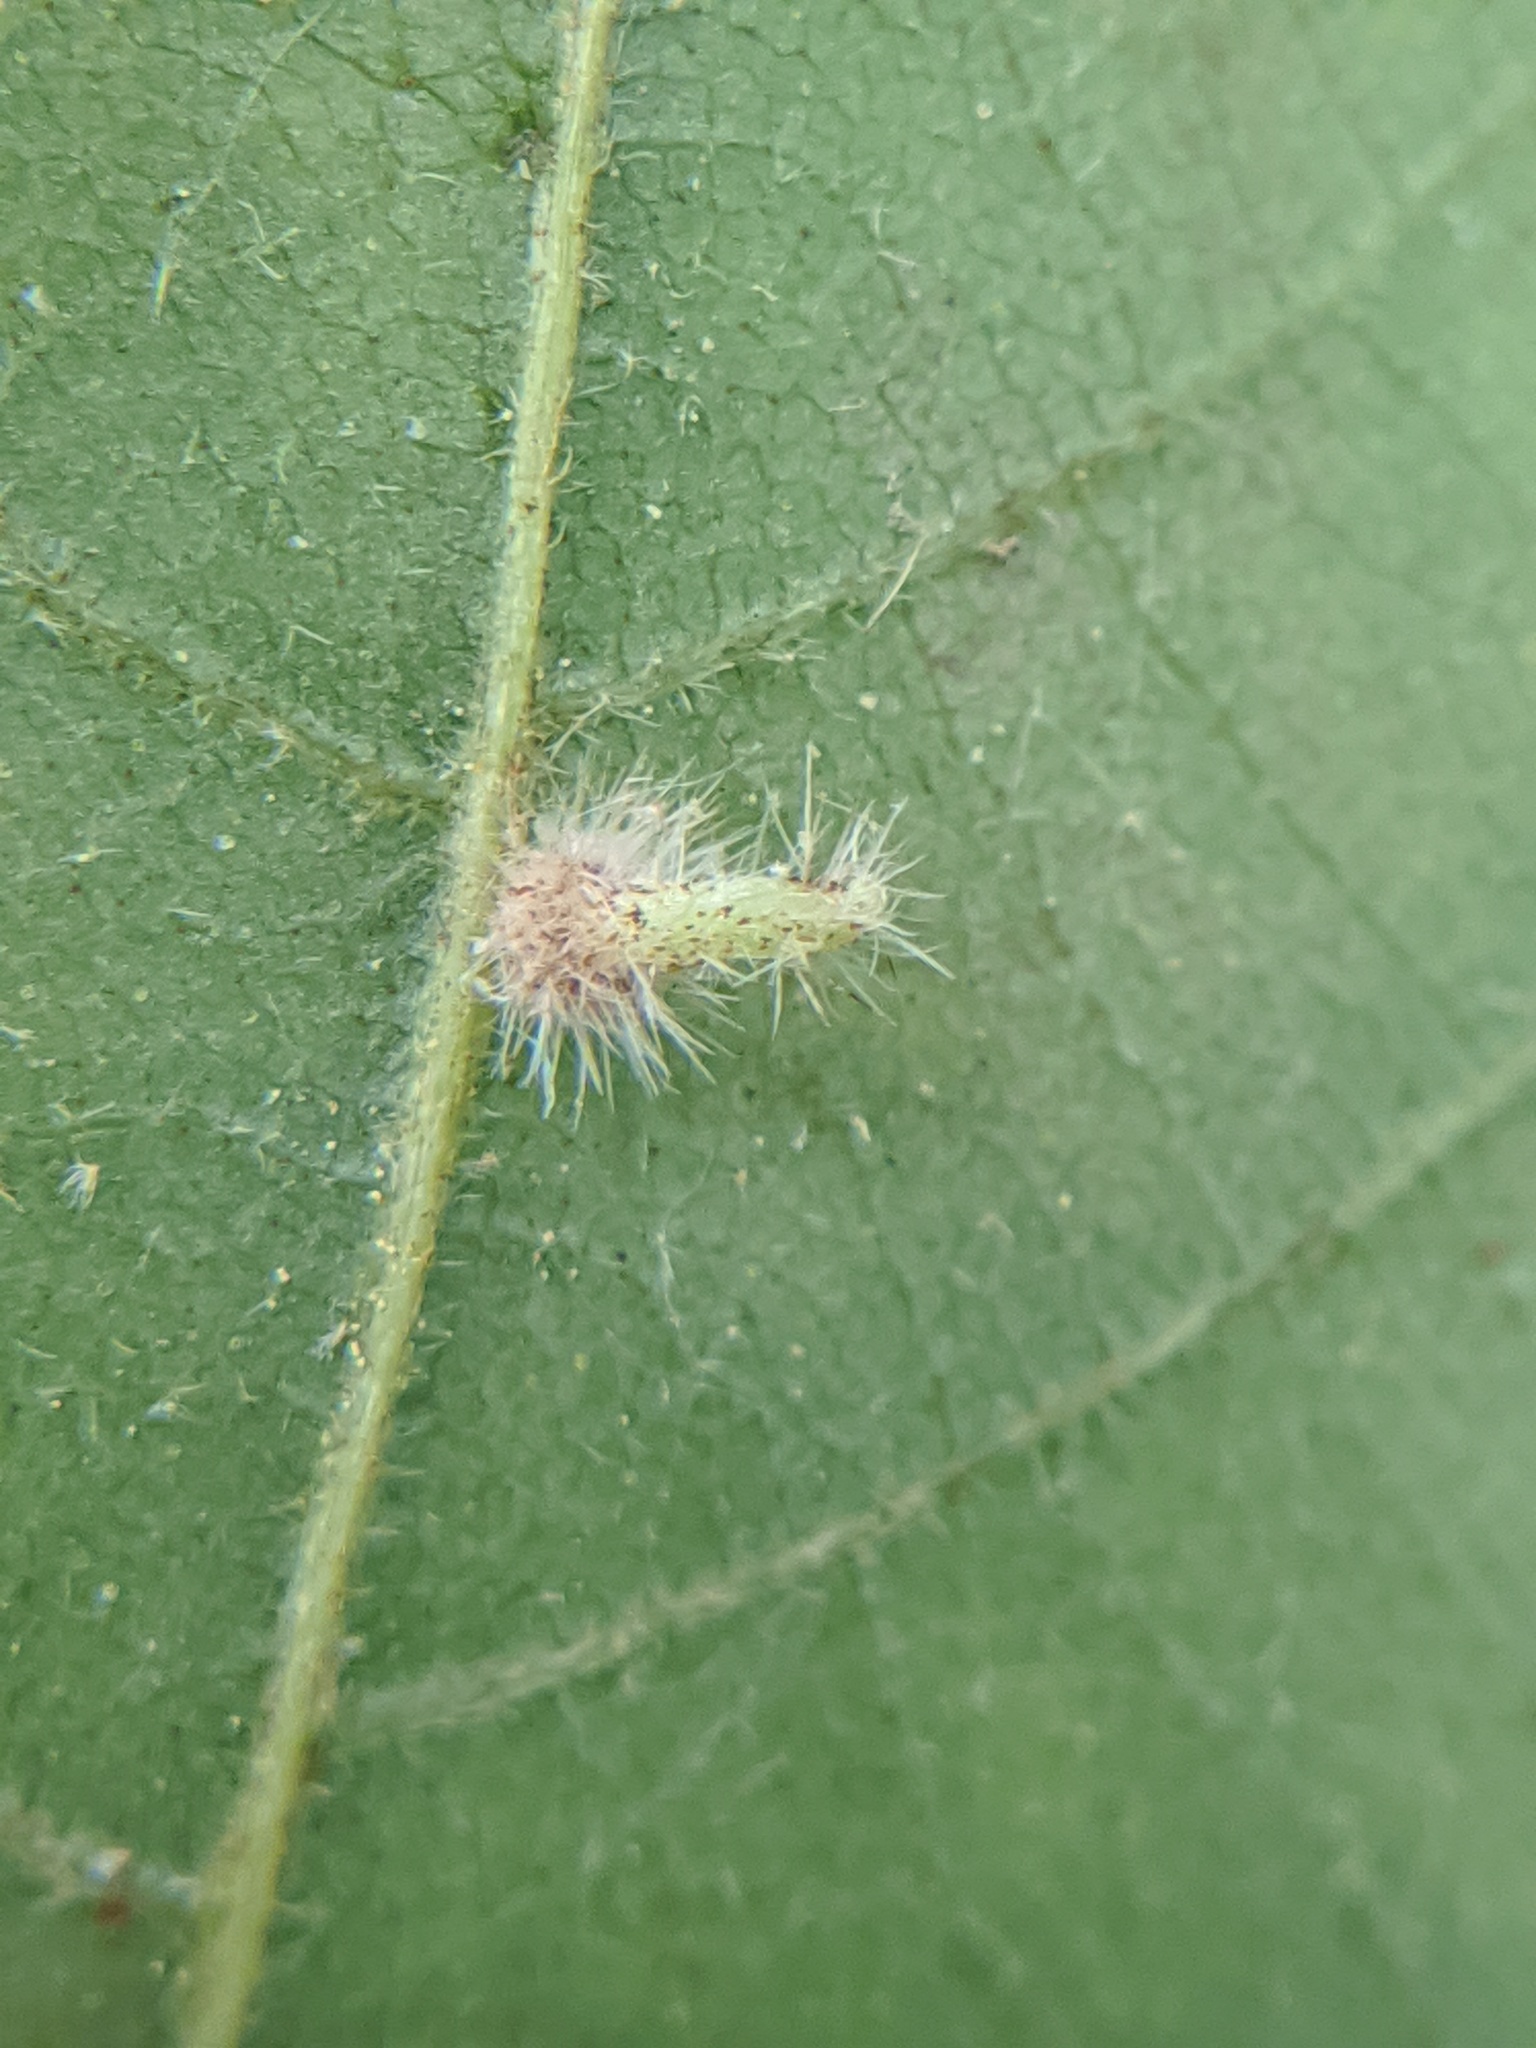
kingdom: Animalia
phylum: Arthropoda
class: Insecta
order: Diptera
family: Cecidomyiidae
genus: Caryomyia
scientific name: Caryomyia inclinata
